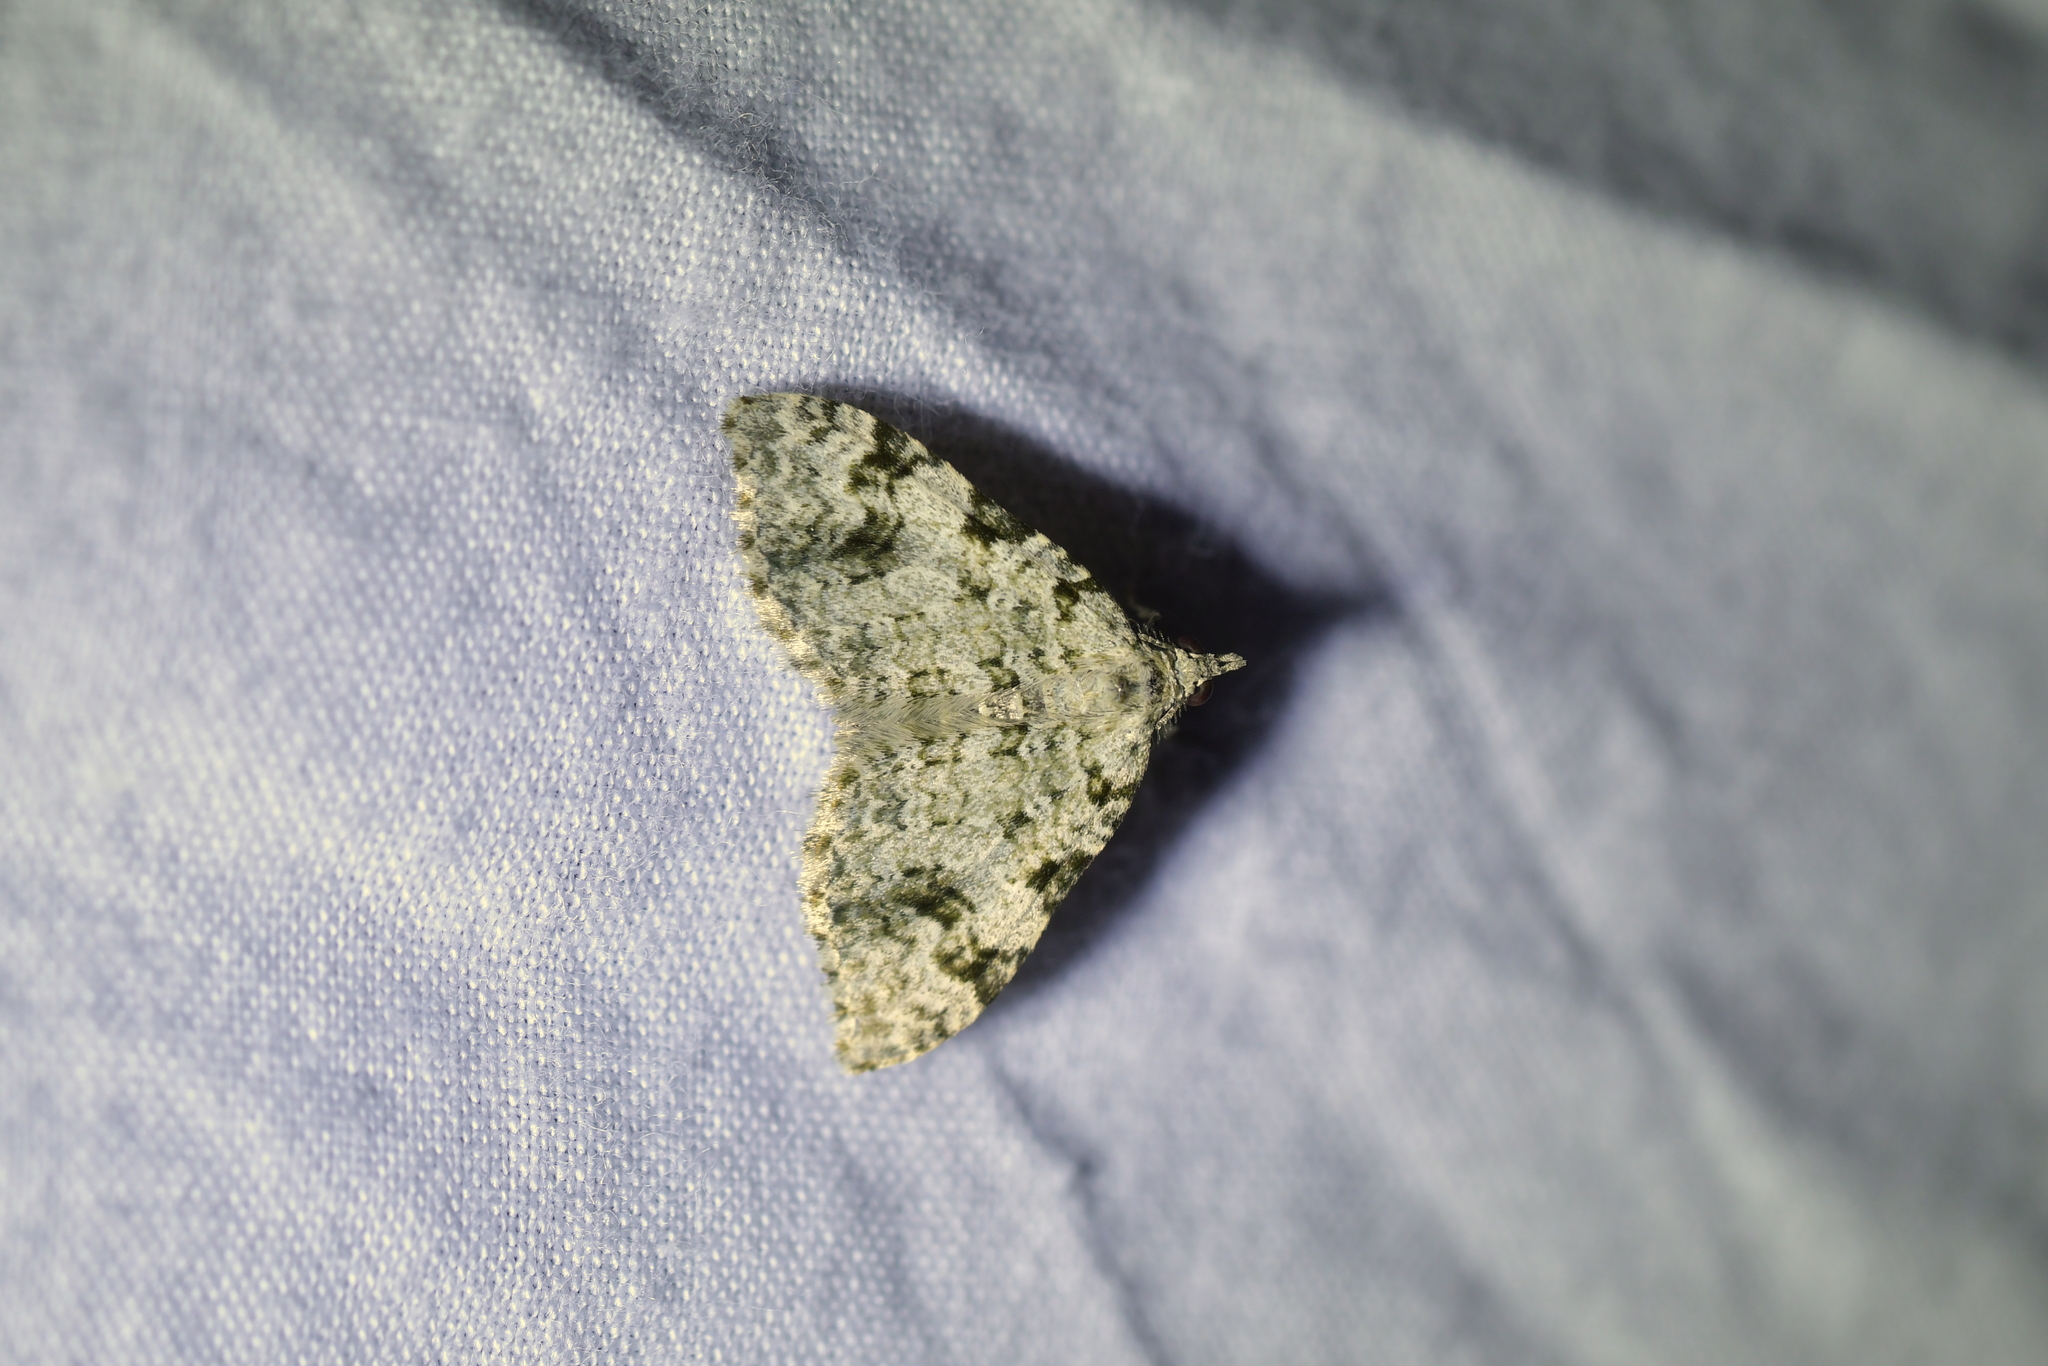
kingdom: Animalia
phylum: Arthropoda
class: Insecta
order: Lepidoptera
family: Geometridae
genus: Helastia
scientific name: Helastia cinerearia
